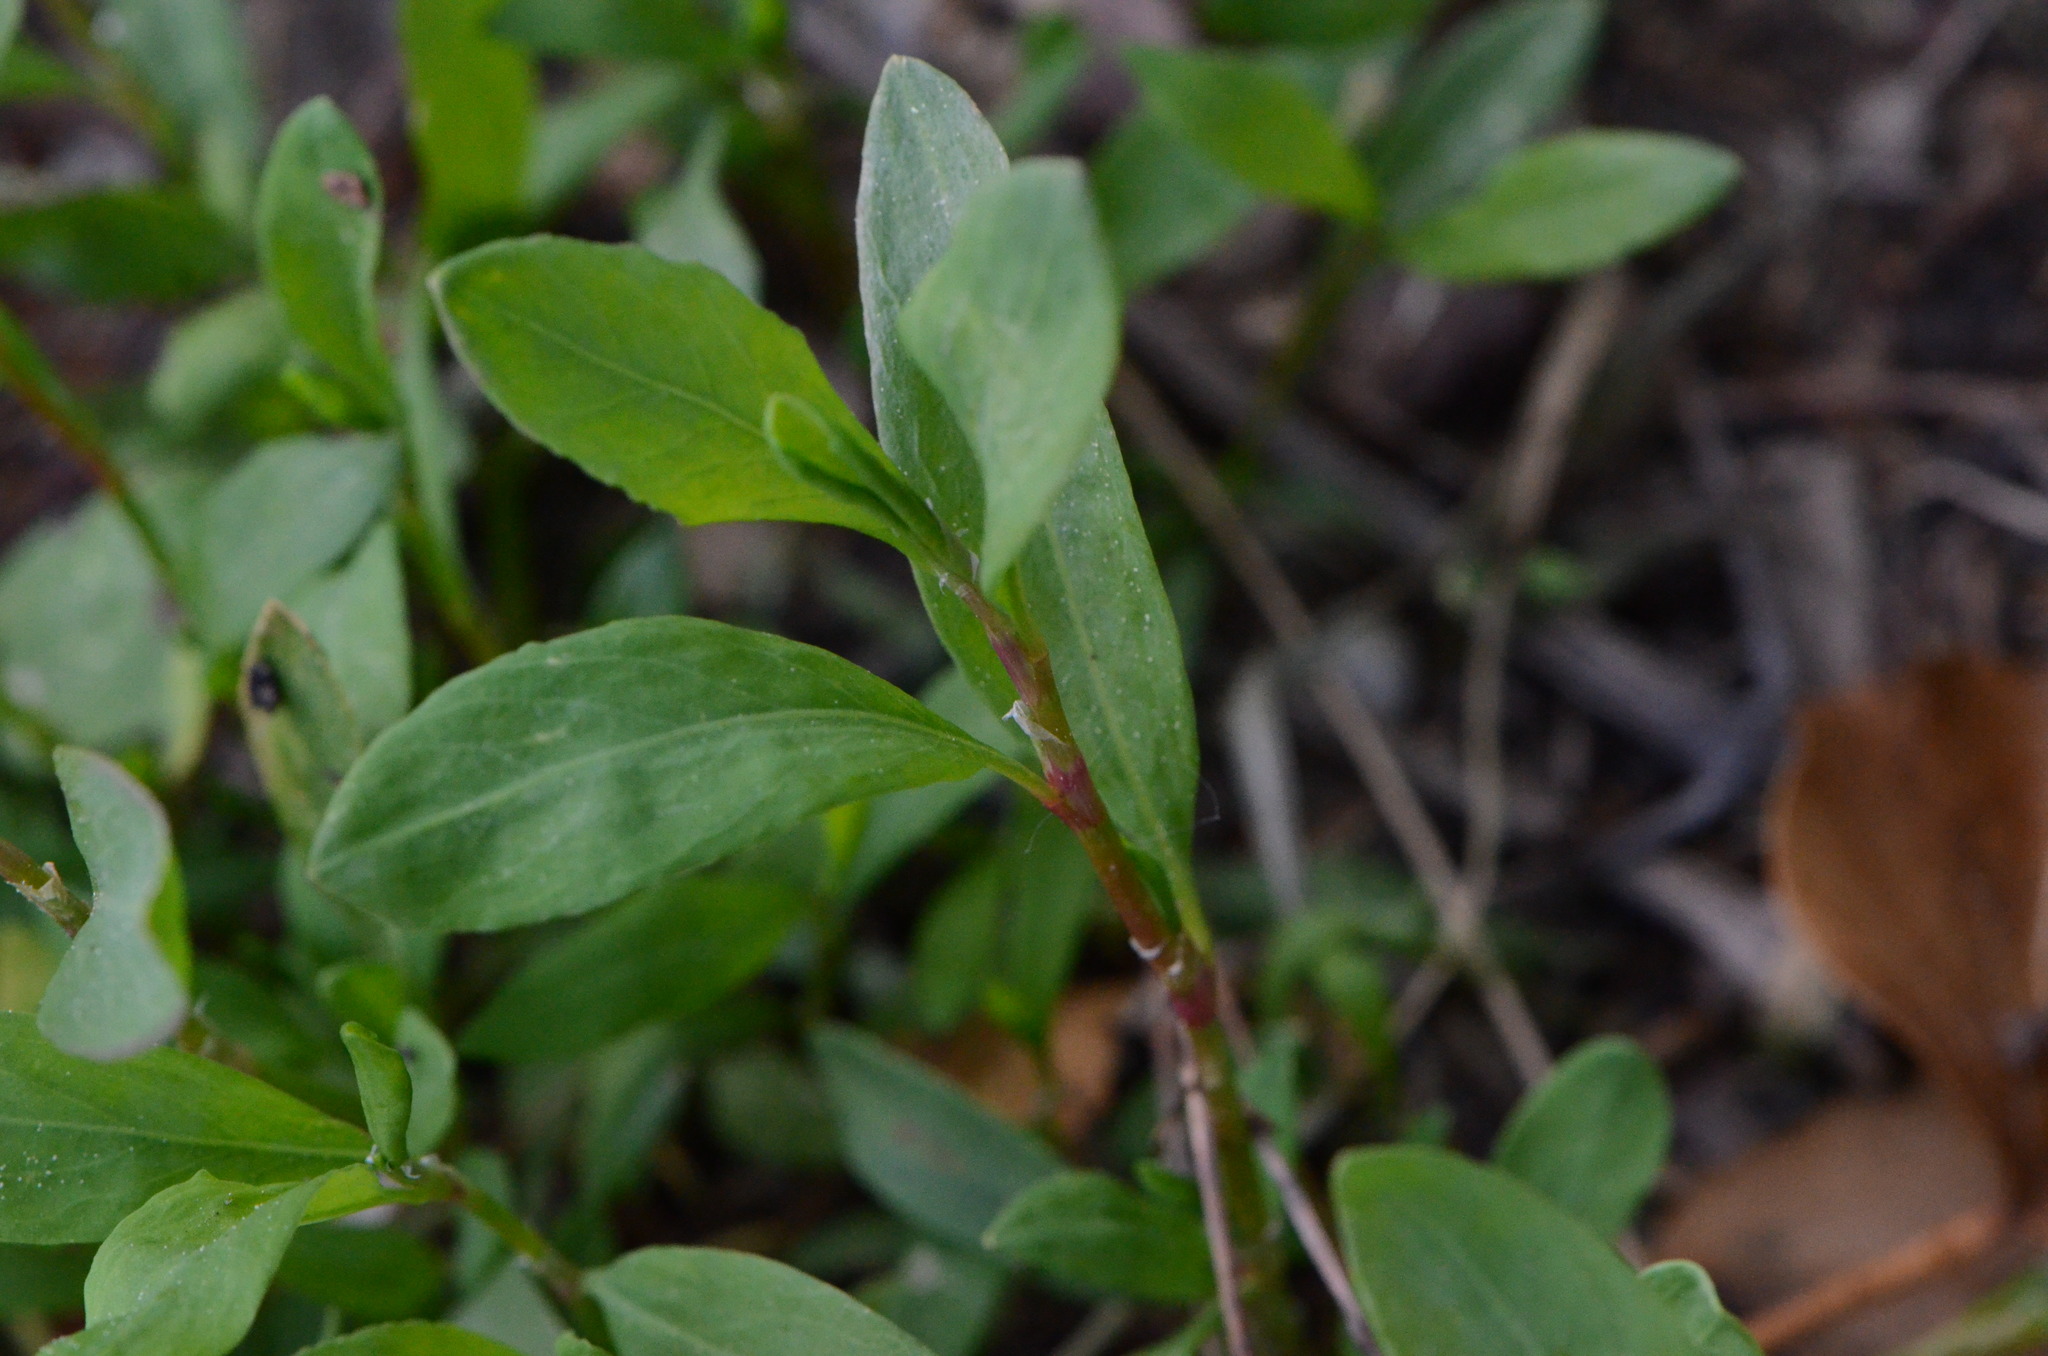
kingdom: Plantae
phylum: Tracheophyta
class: Magnoliopsida
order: Caryophyllales
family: Polygonaceae
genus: Polygonum
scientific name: Polygonum aviculare
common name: Prostrate knotweed
